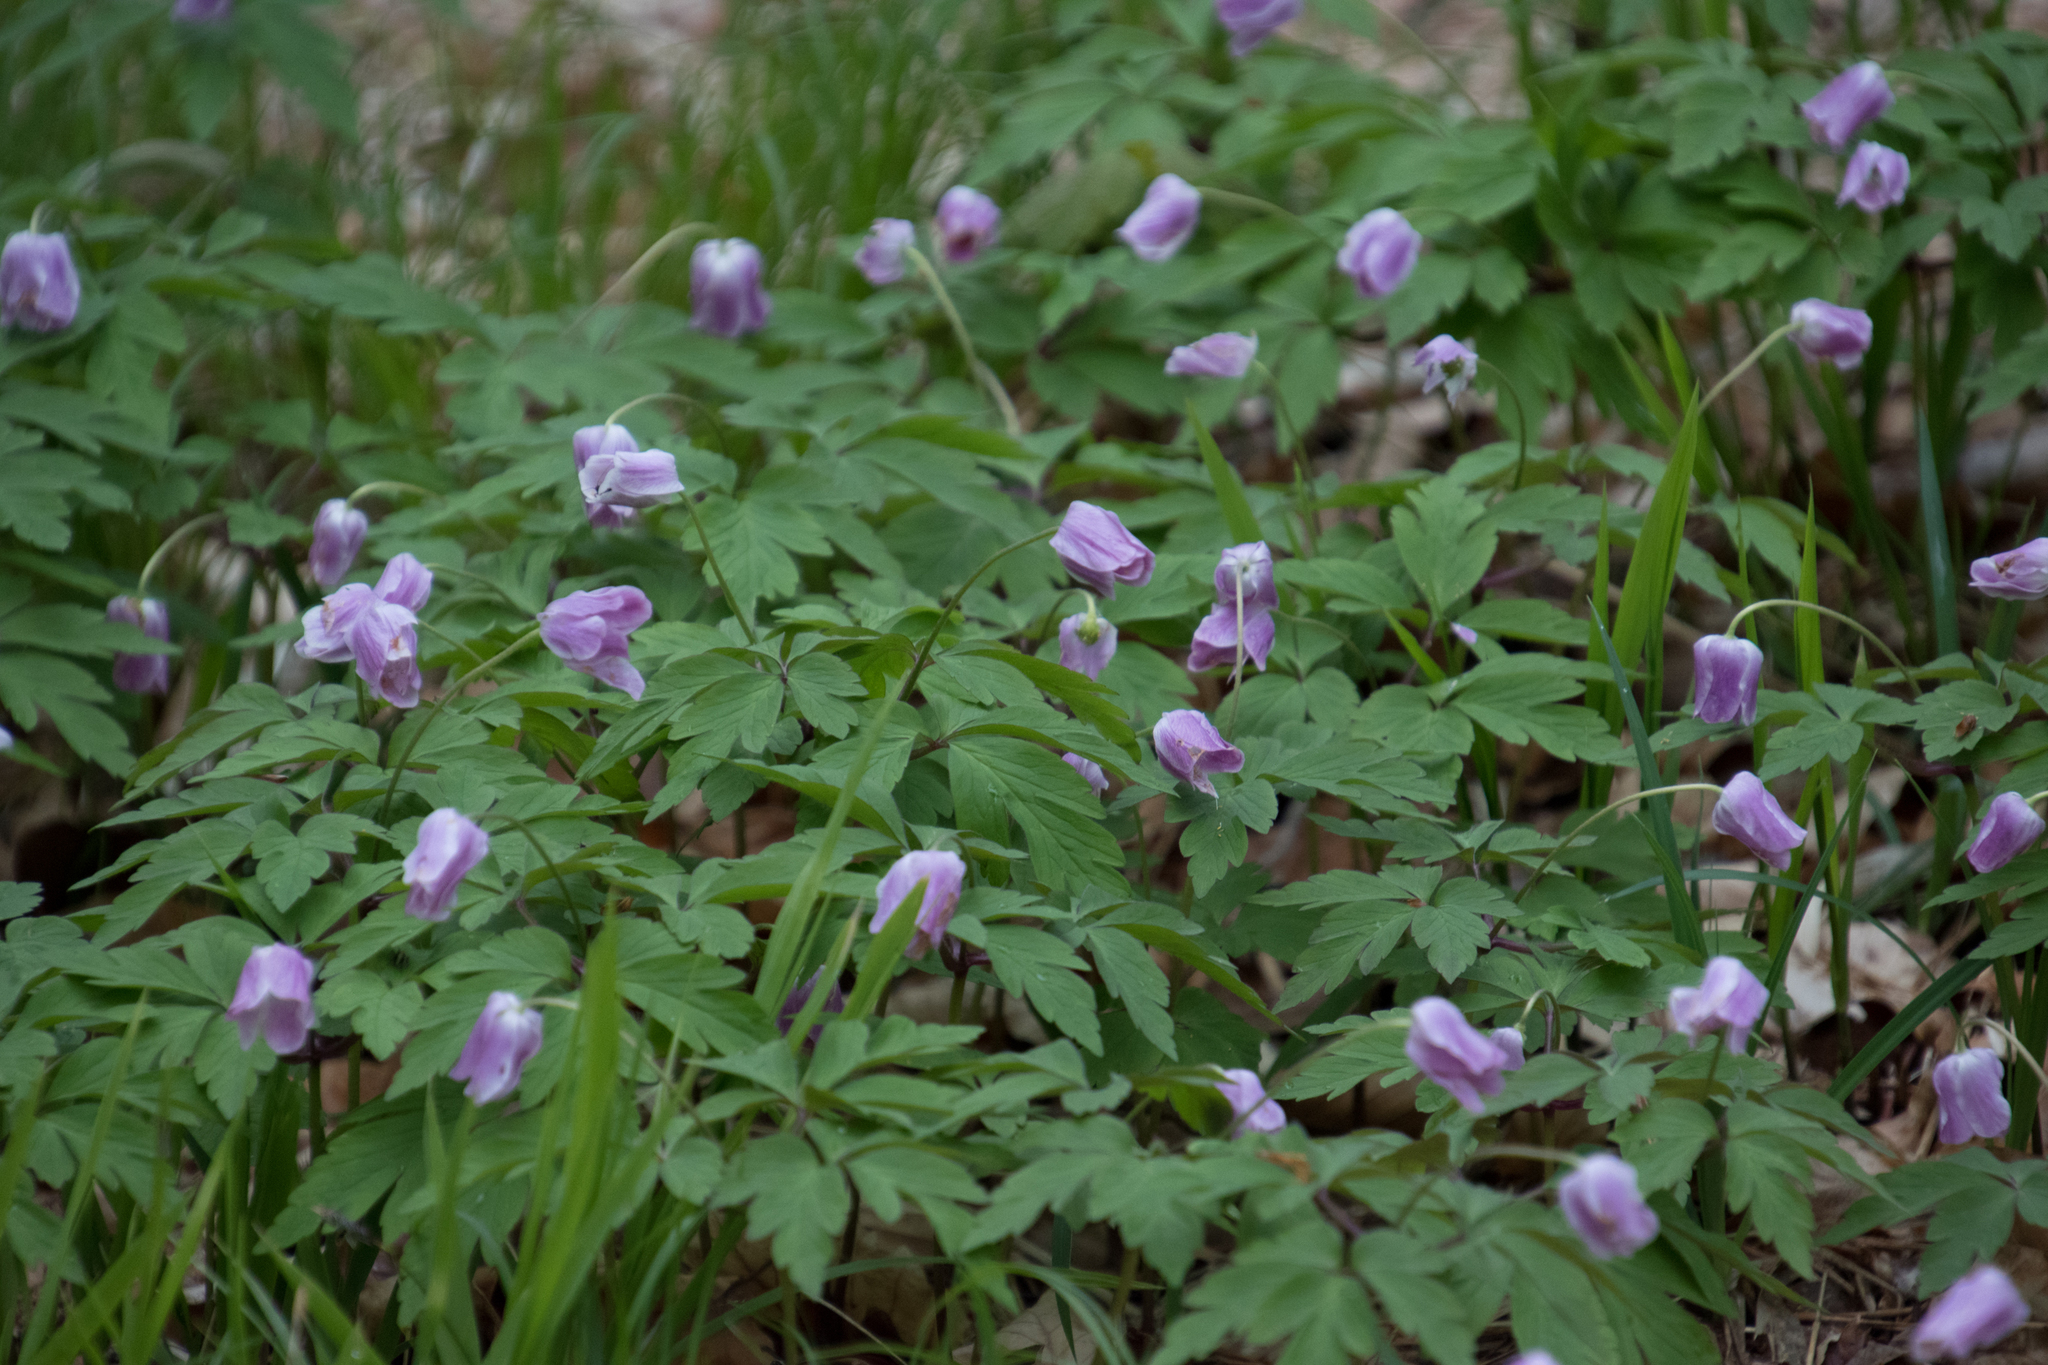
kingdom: Plantae
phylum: Tracheophyta
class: Magnoliopsida
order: Ranunculales
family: Ranunculaceae
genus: Anemone
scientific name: Anemone nemorosa
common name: Wood anemone
